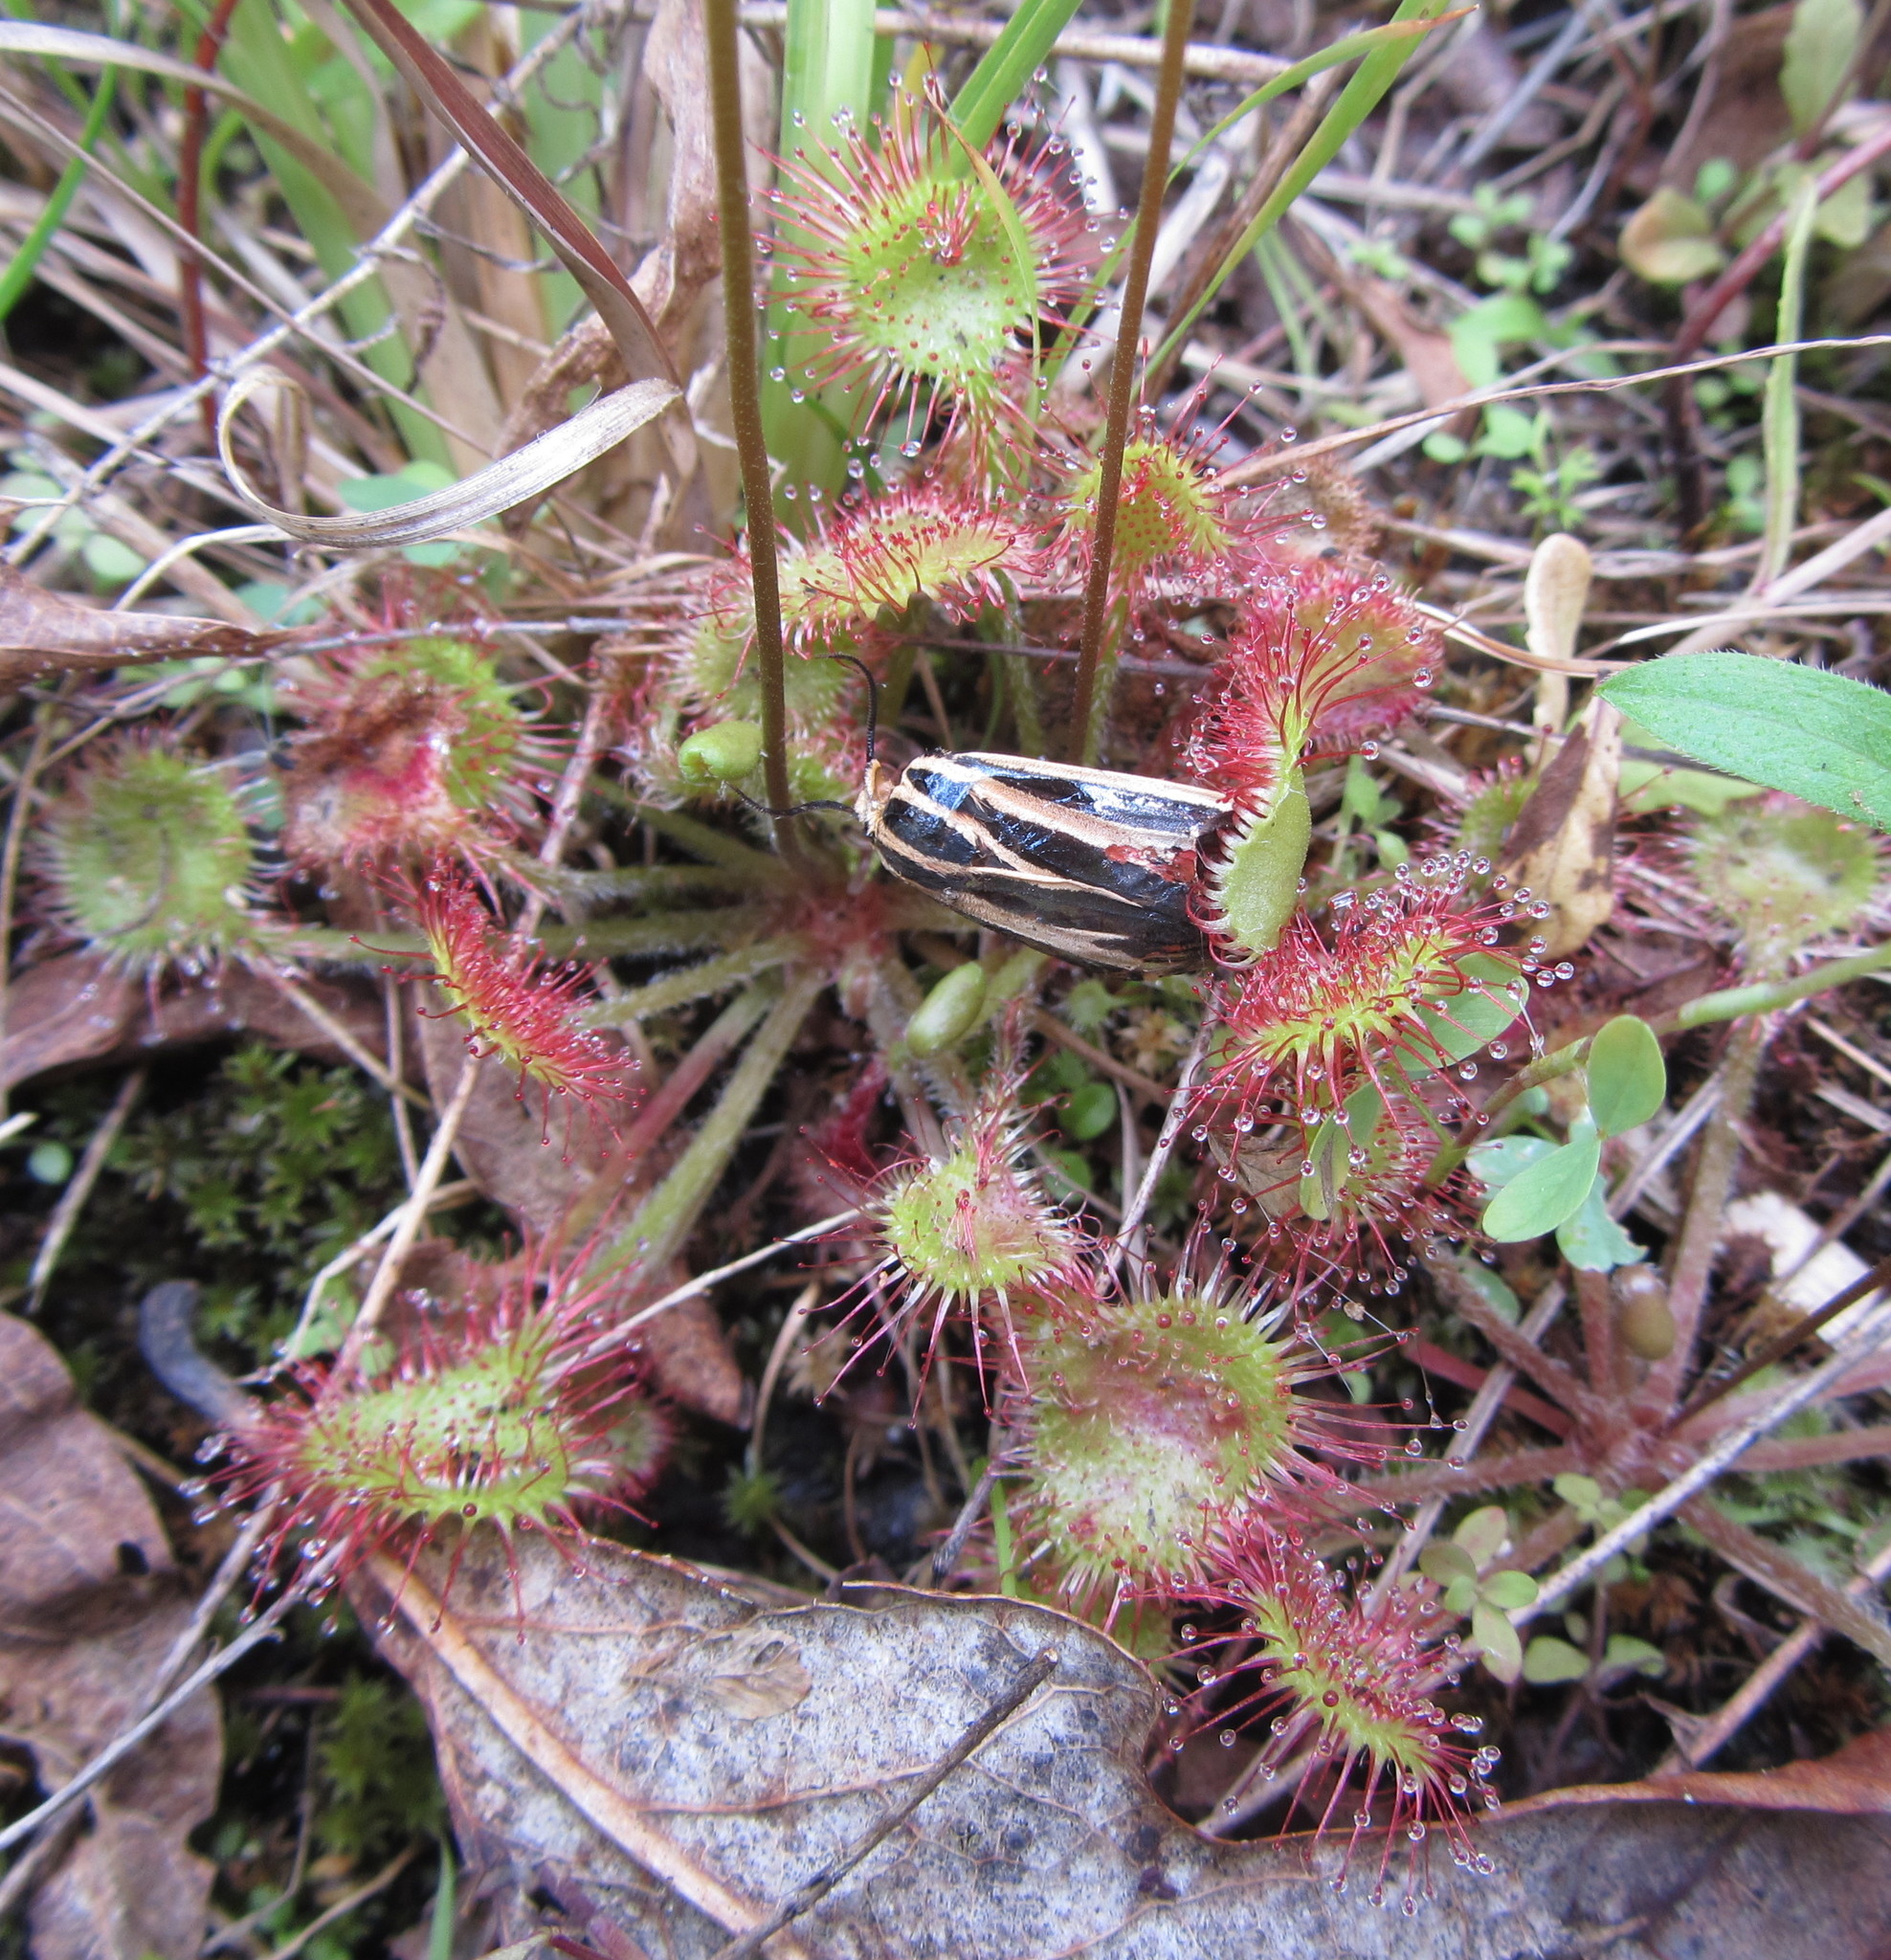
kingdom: Plantae
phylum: Tracheophyta
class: Magnoliopsida
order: Caryophyllales
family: Droseraceae
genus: Drosera
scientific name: Drosera rotundifolia
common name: Round-leaved sundew
